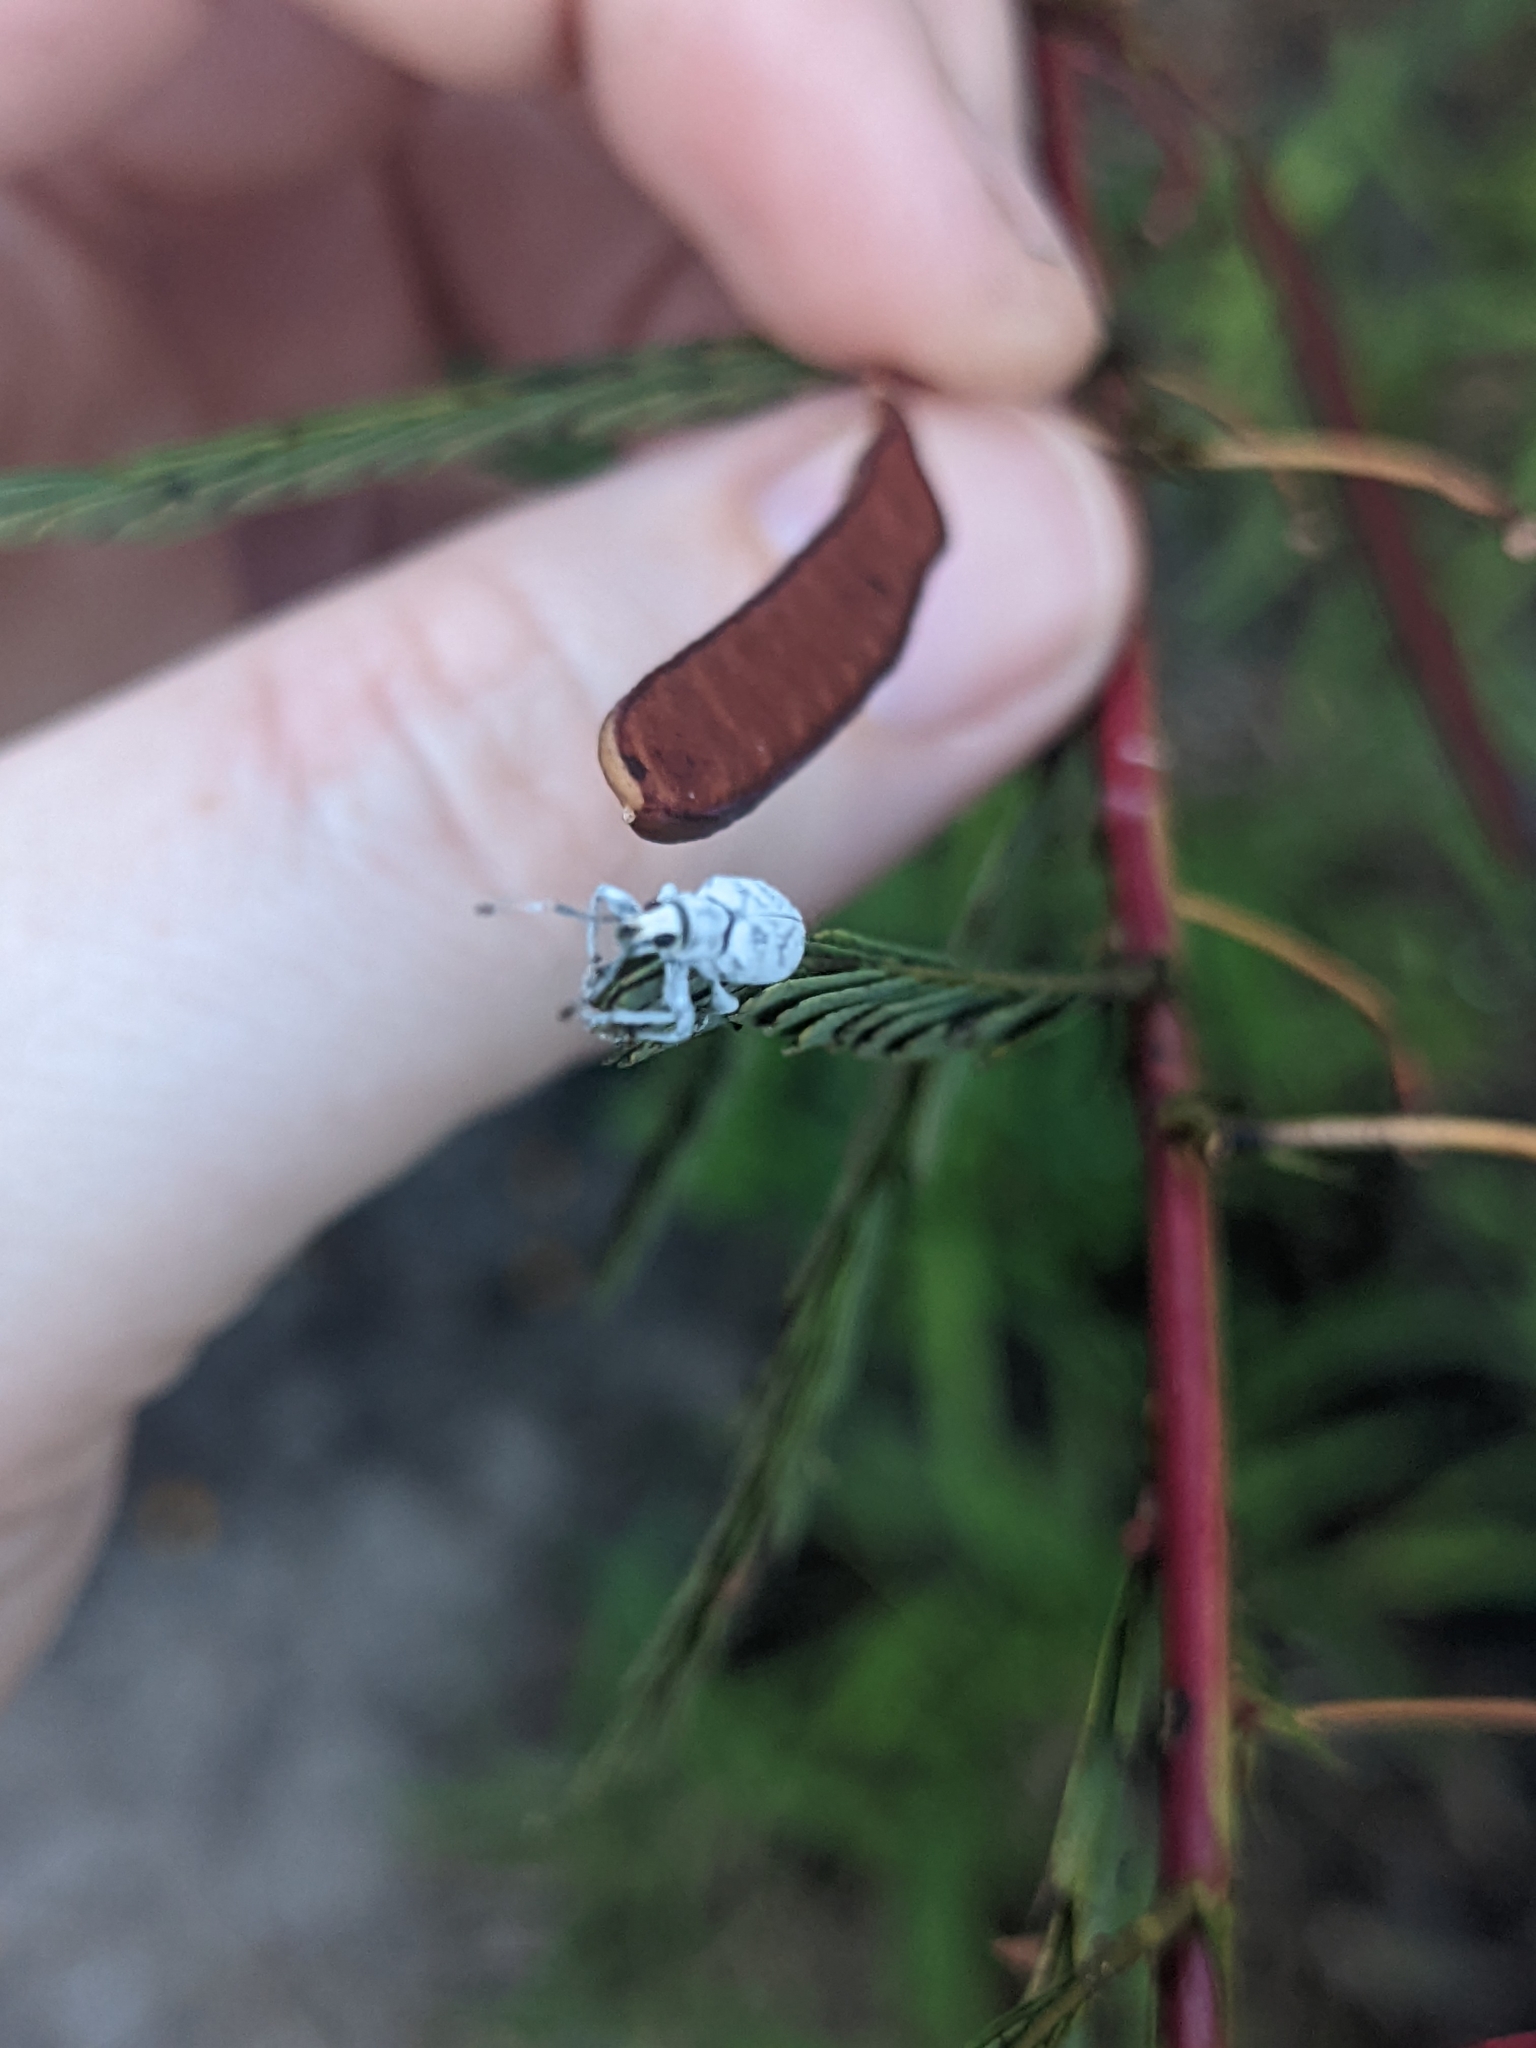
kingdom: Animalia
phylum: Arthropoda
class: Insecta
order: Coleoptera
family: Curculionidae
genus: Myllocerus
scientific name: Myllocerus undecimpustulatus
